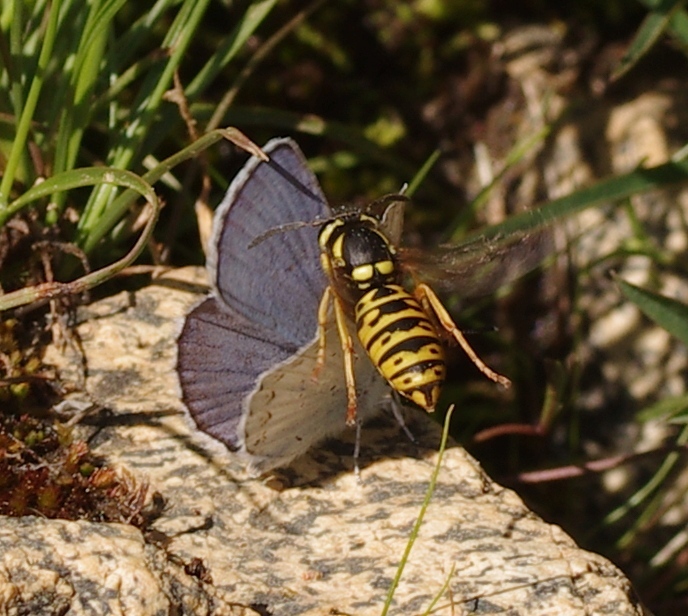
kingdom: Animalia
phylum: Arthropoda
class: Insecta
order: Hymenoptera
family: Vespidae
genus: Vespula
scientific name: Vespula atropilosa
